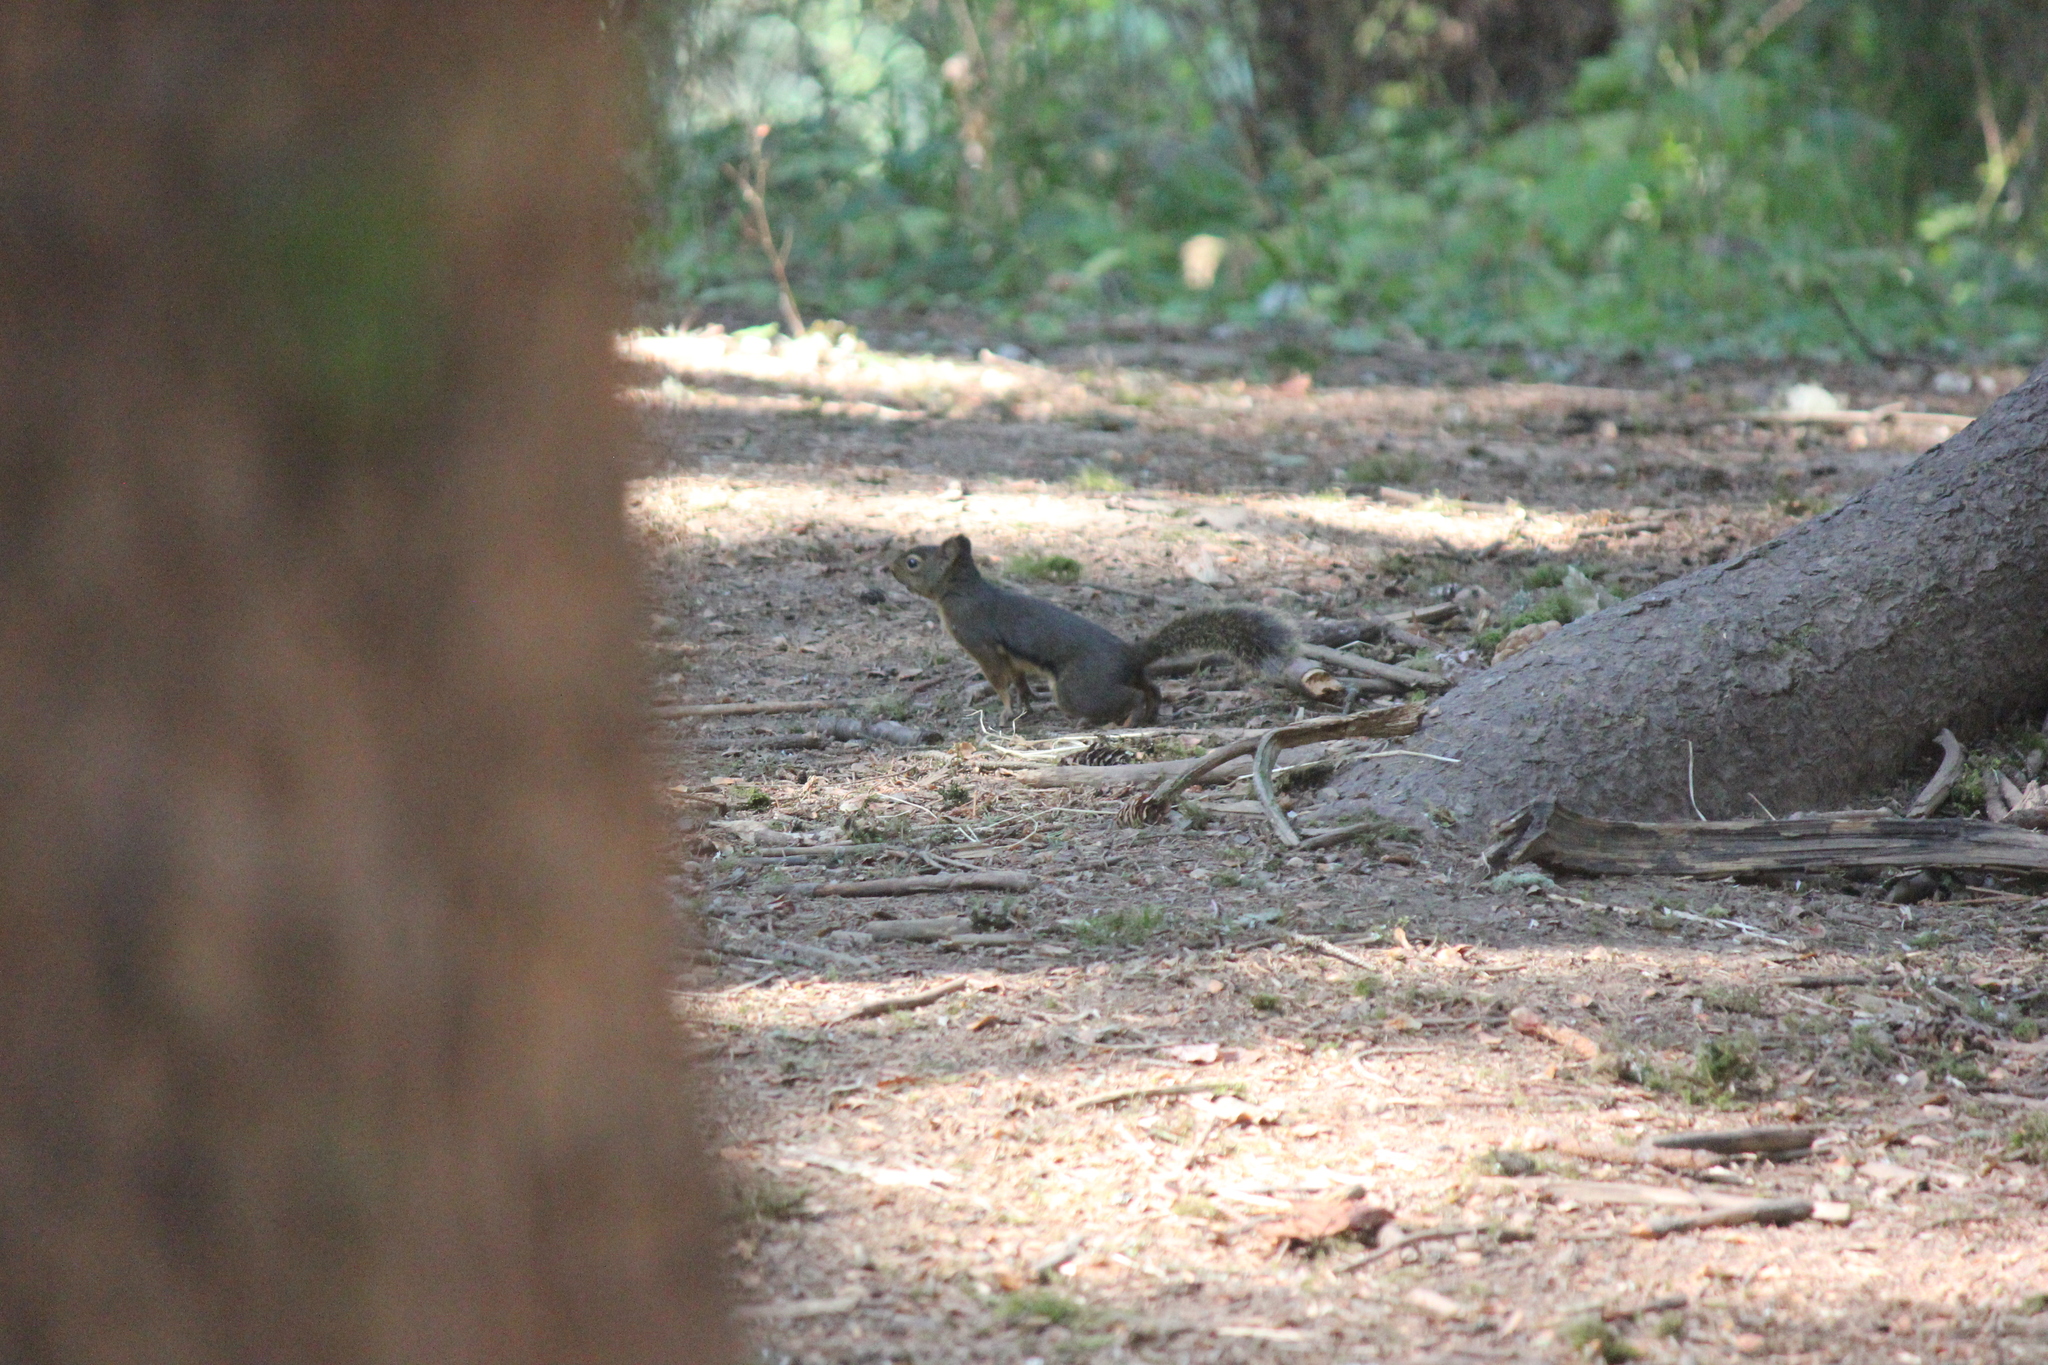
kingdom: Animalia
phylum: Chordata
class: Mammalia
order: Rodentia
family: Sciuridae
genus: Tamiasciurus
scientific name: Tamiasciurus douglasii
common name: Douglas's squirrel
